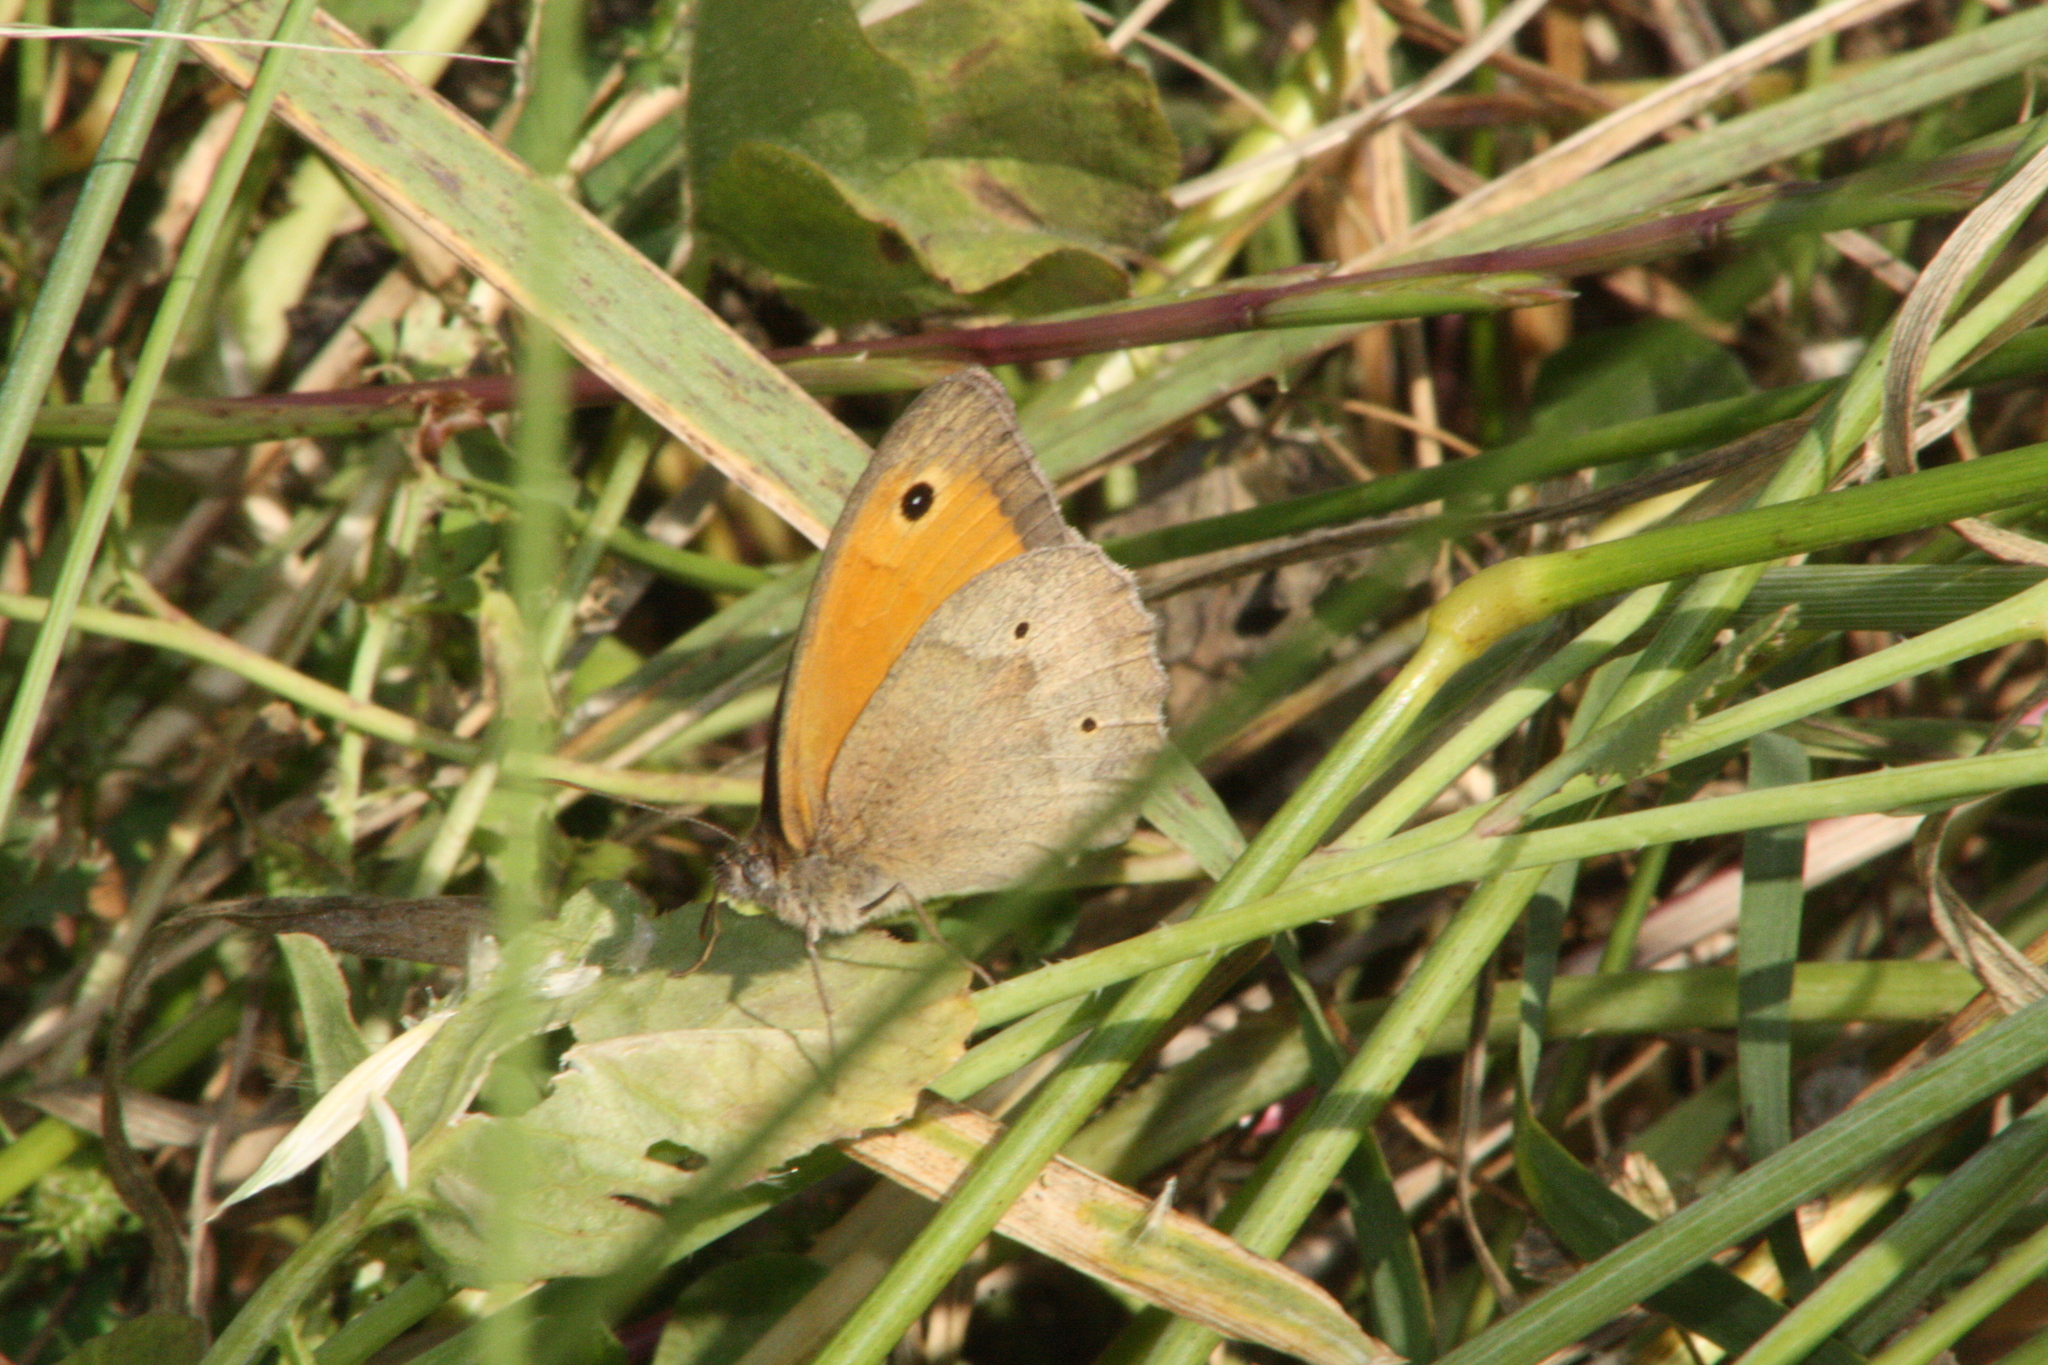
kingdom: Animalia
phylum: Arthropoda
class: Insecta
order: Lepidoptera
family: Nymphalidae
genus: Maniola
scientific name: Maniola jurtina
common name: Meadow brown
